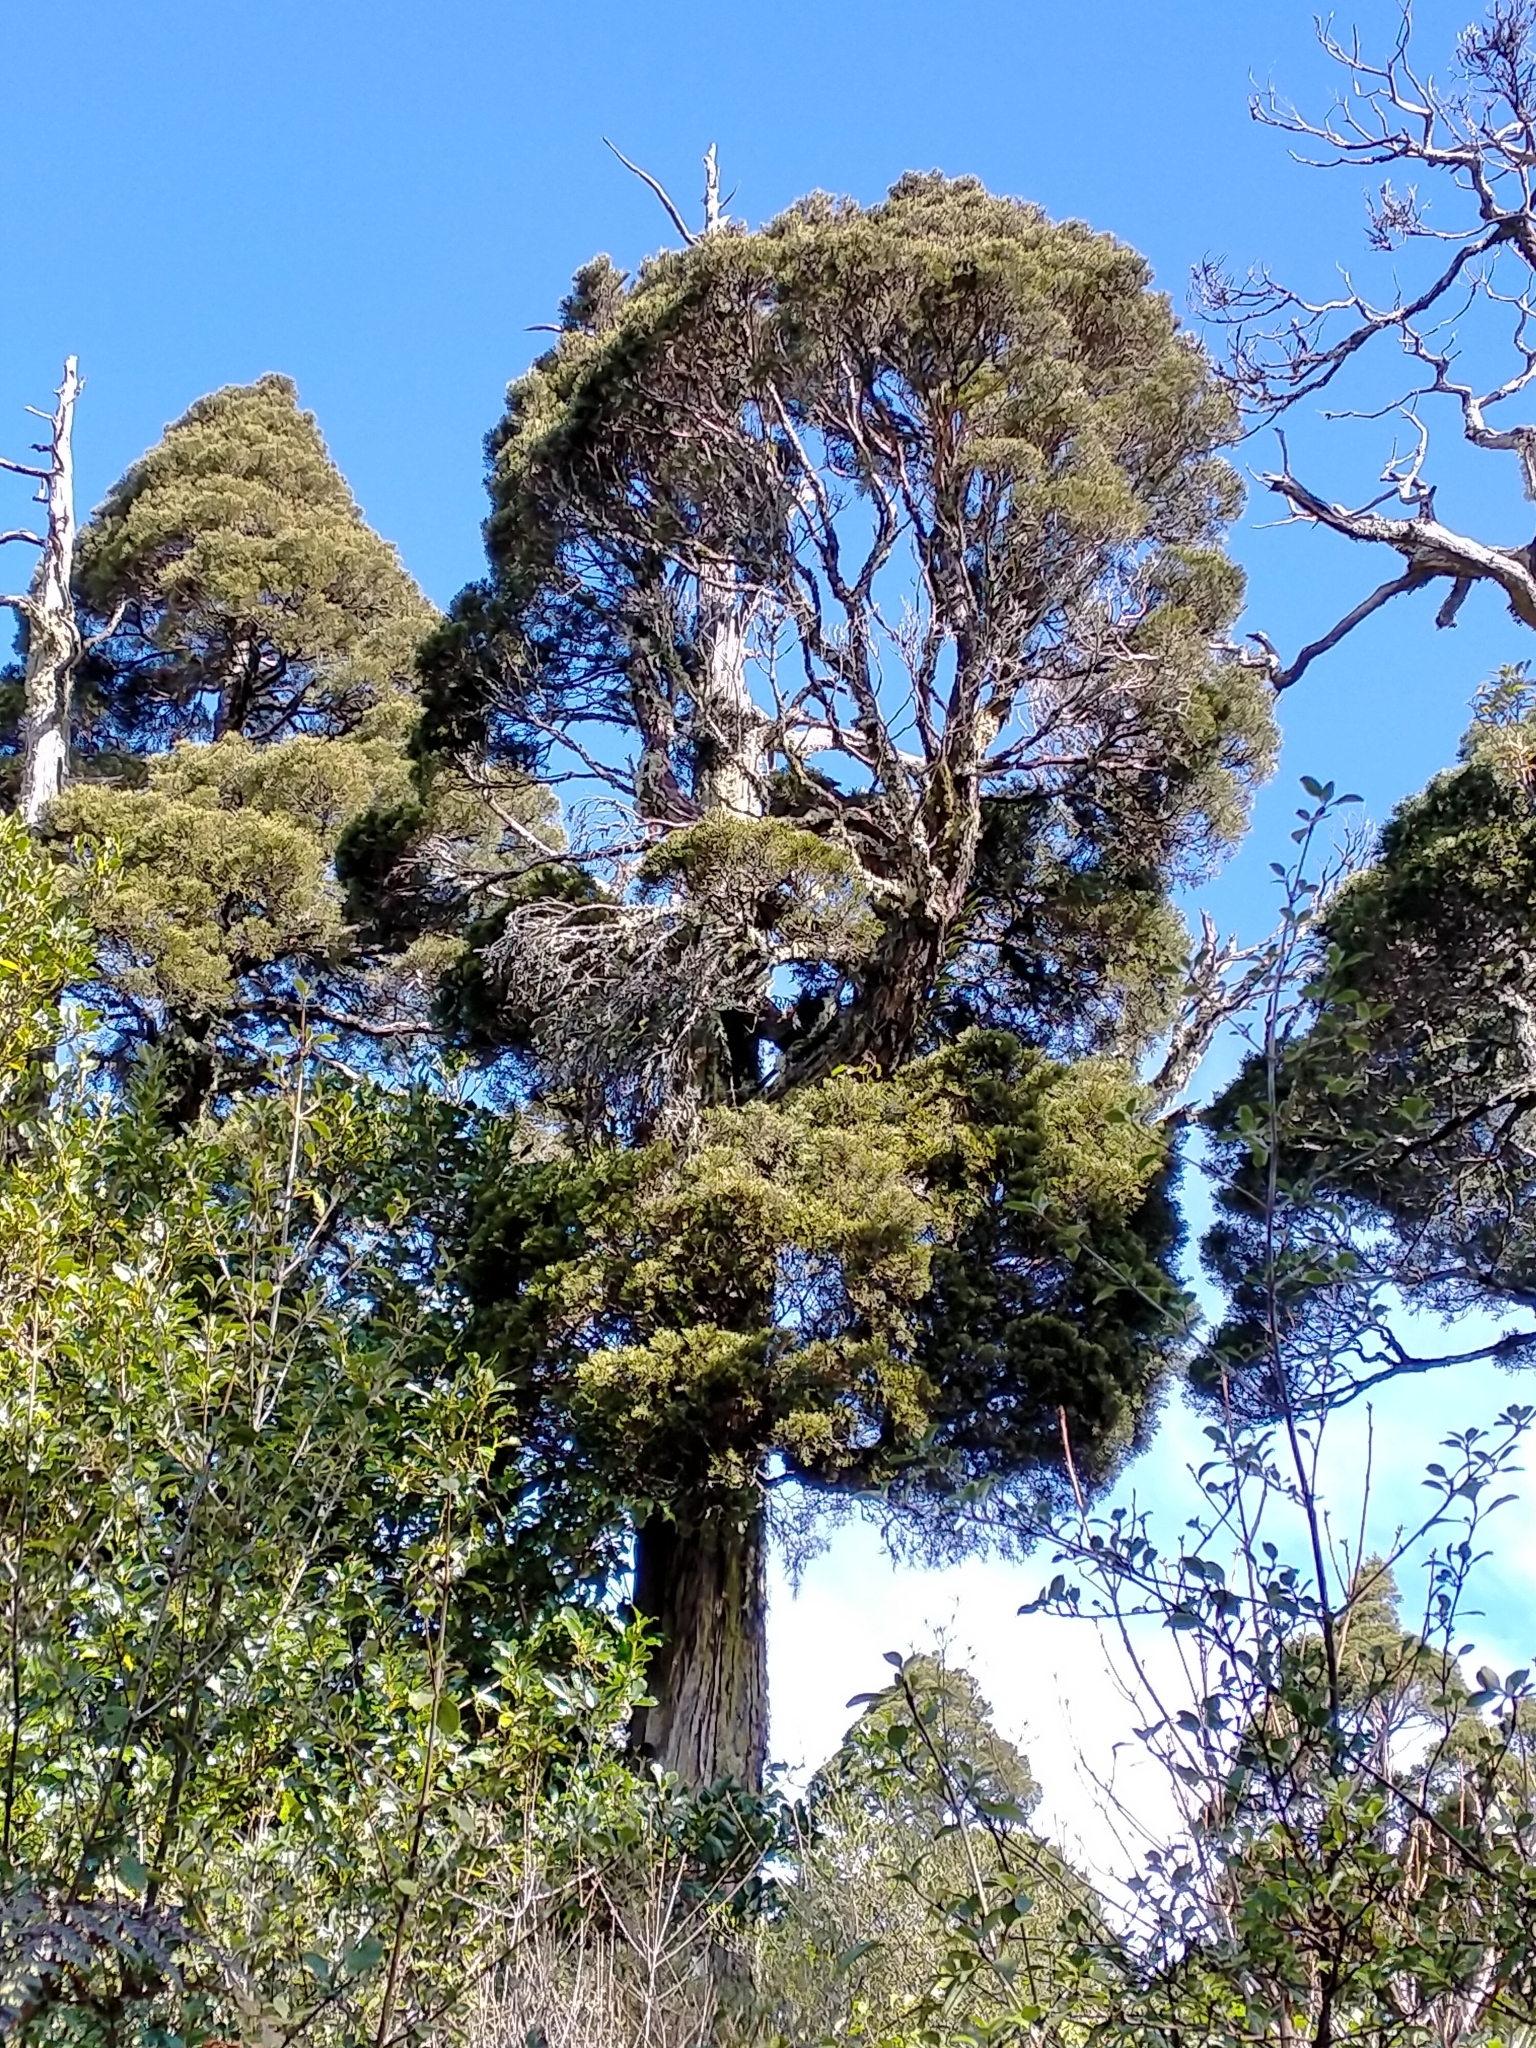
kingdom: Plantae
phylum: Tracheophyta
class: Pinopsida
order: Pinales
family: Cupressaceae
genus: Libocedrus
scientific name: Libocedrus bidwillii
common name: Cedar
